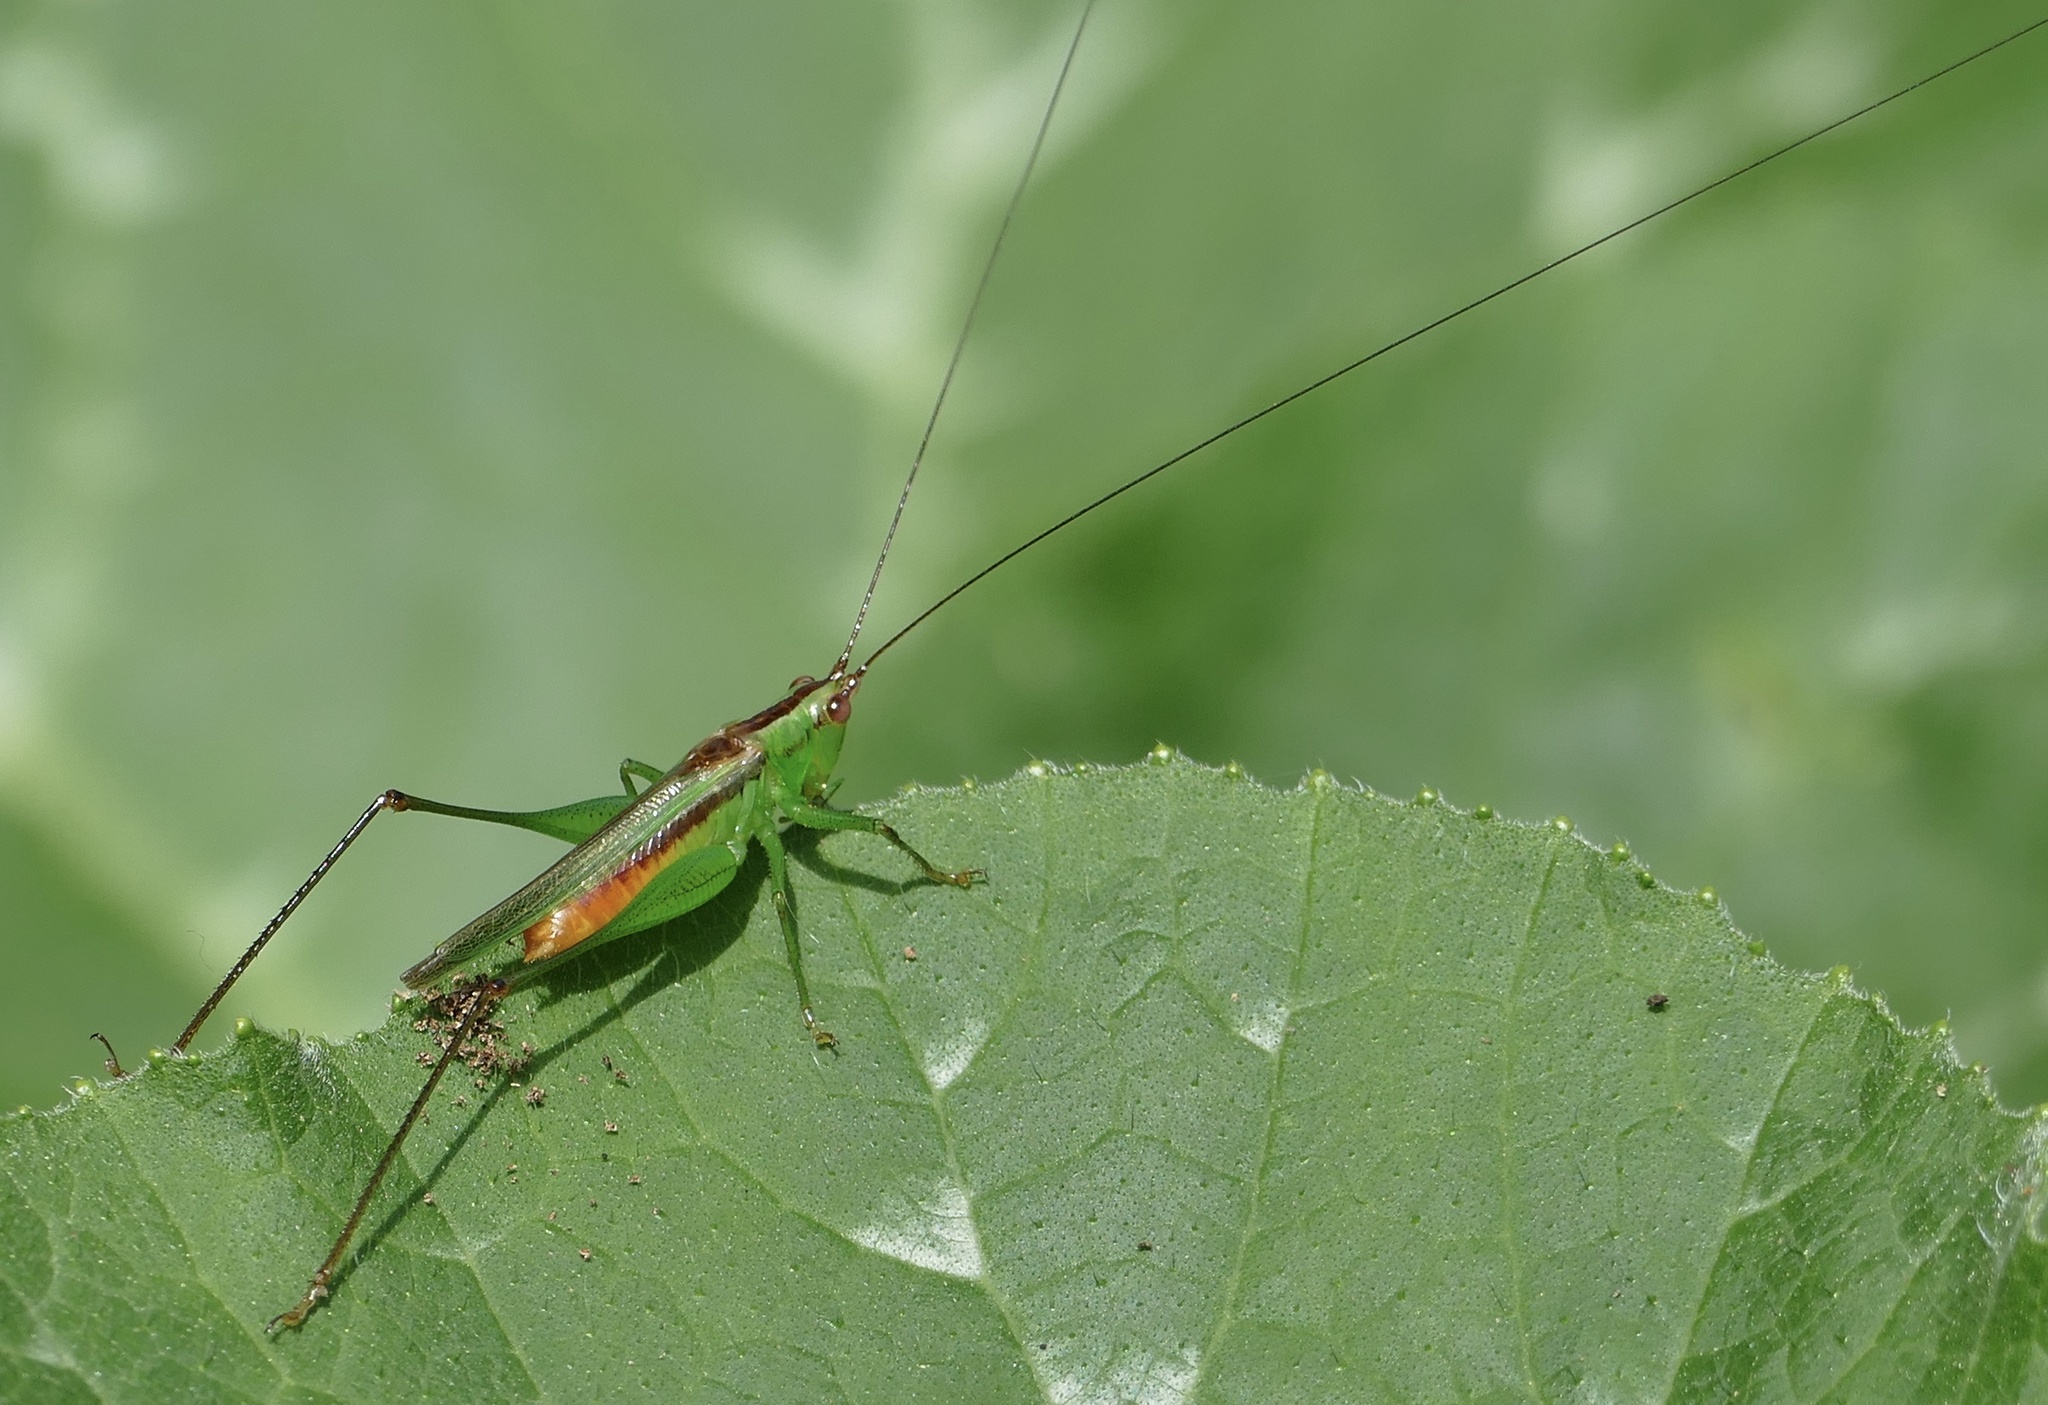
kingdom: Animalia
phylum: Arthropoda
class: Insecta
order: Orthoptera
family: Tettigoniidae
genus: Conocephalus
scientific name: Conocephalus longipennis
